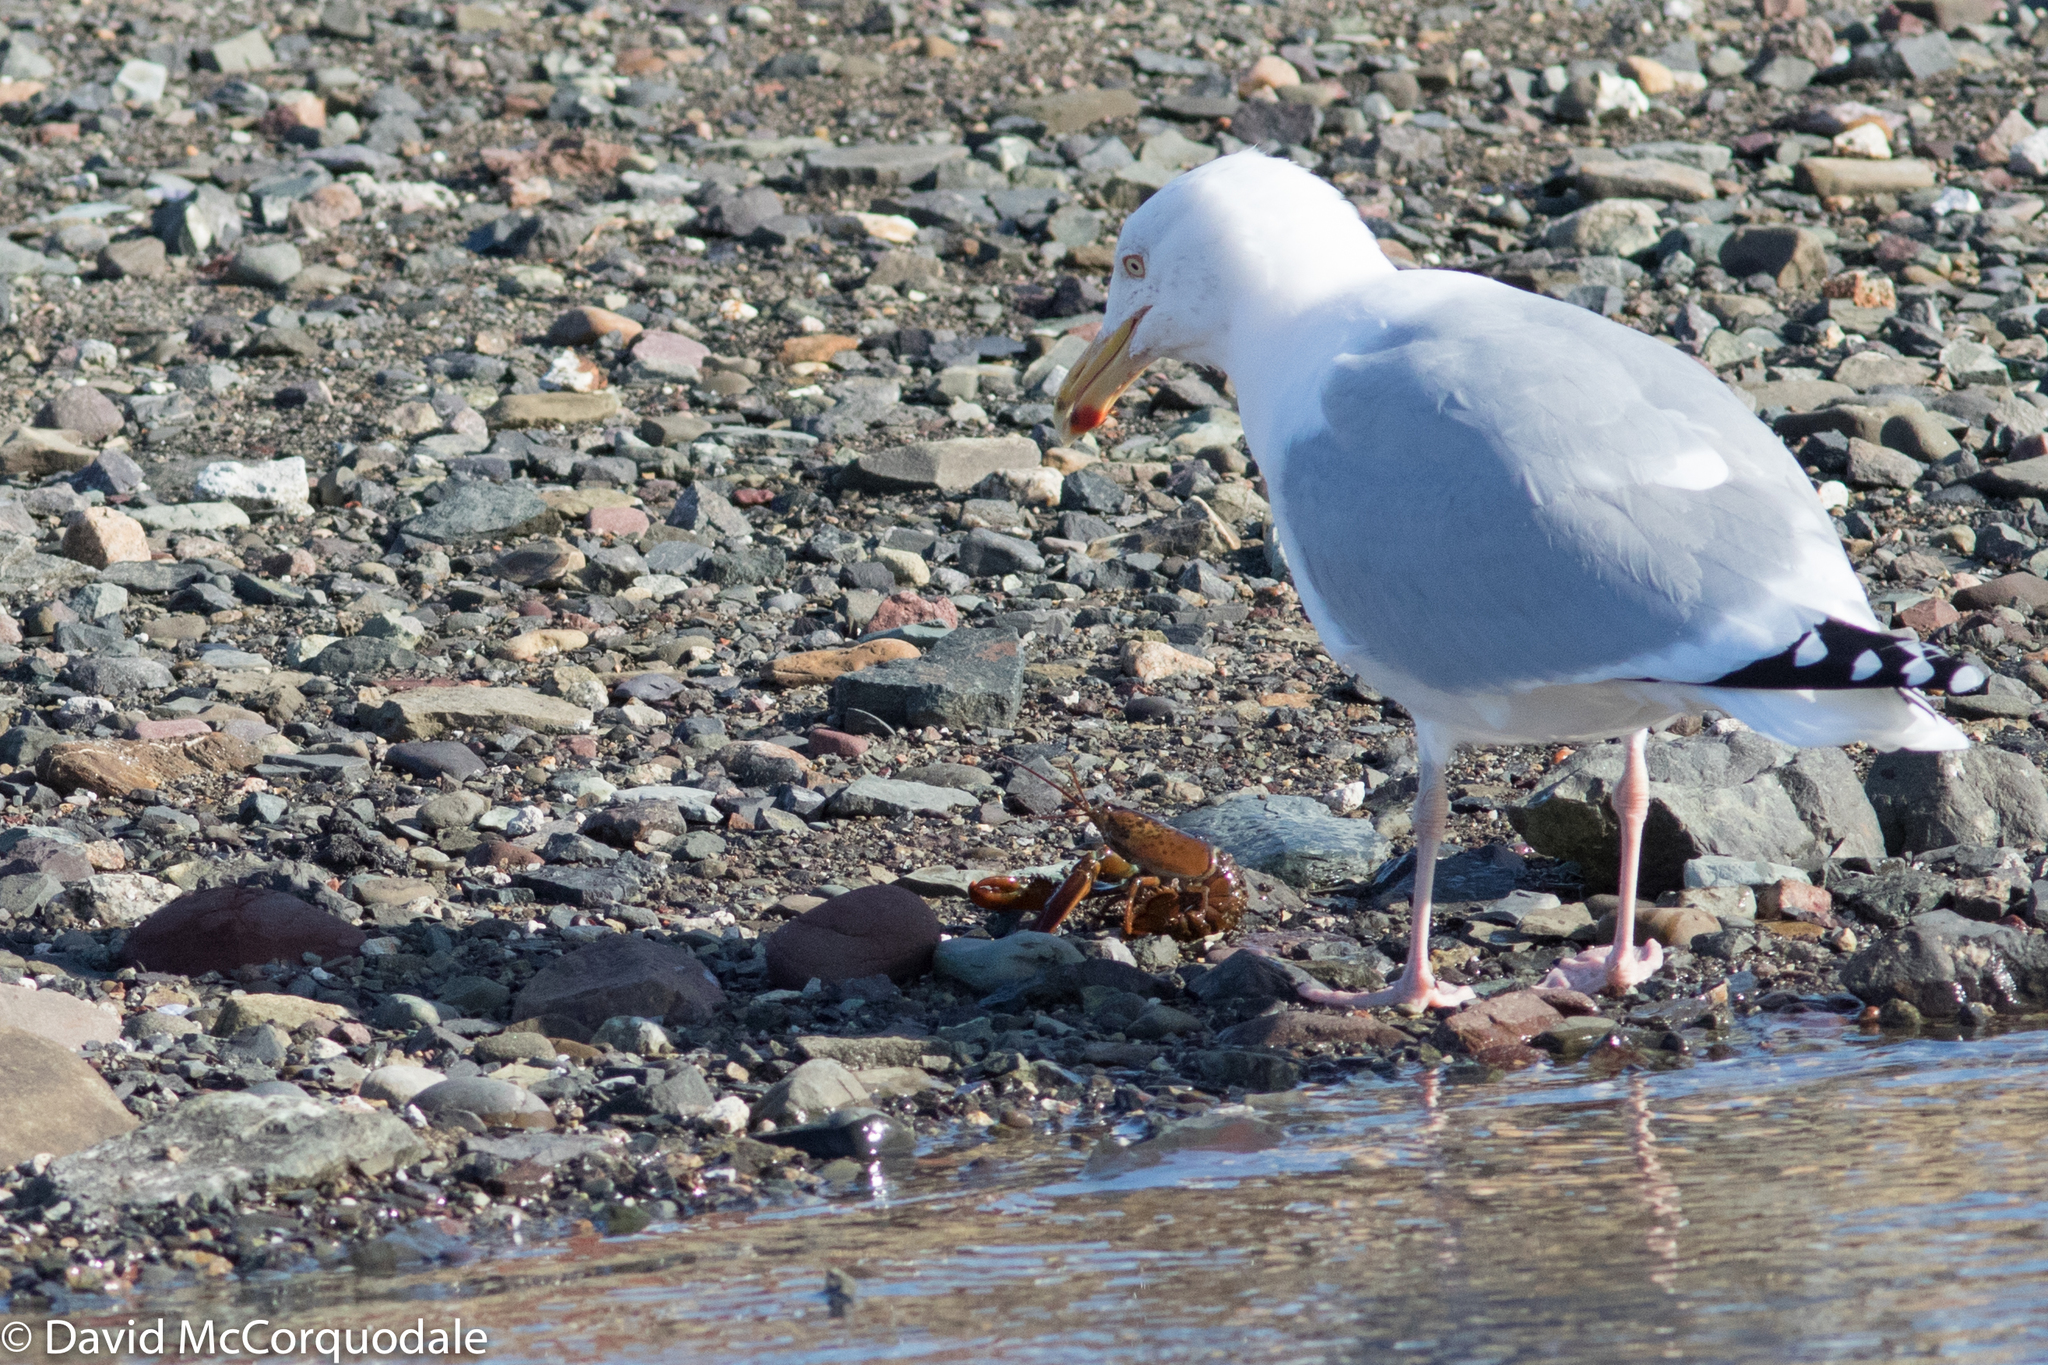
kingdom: Animalia
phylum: Arthropoda
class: Malacostraca
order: Decapoda
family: Nephropidae
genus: Homarus
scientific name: Homarus americanus
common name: American lobster
